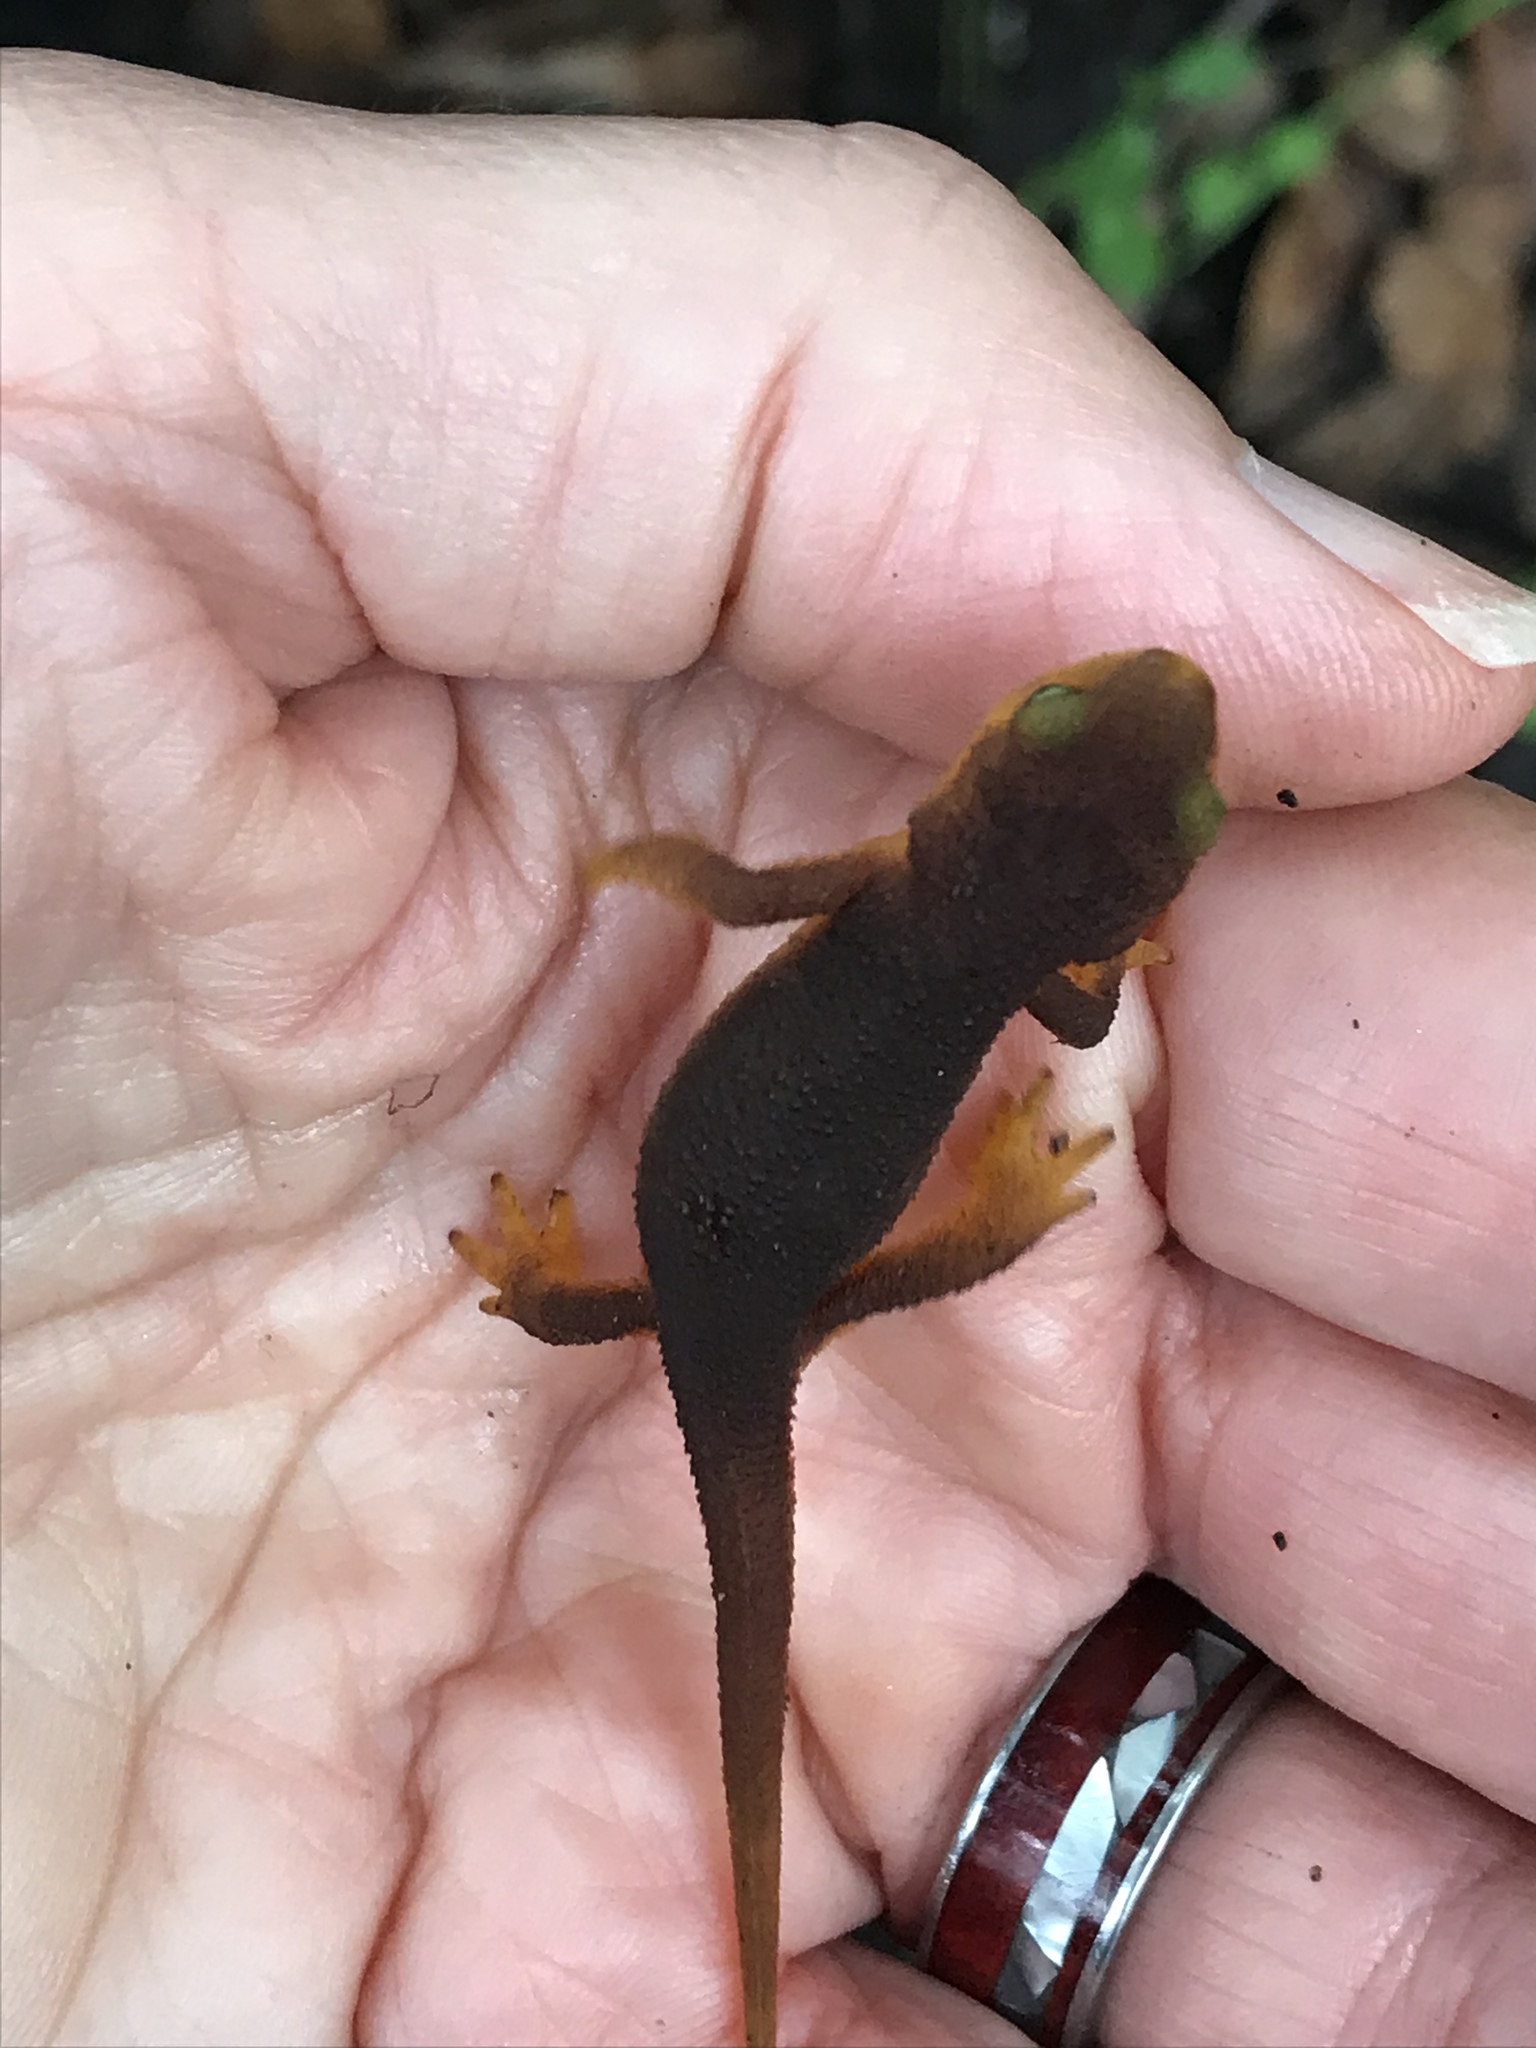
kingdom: Animalia
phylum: Chordata
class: Amphibia
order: Caudata
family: Salamandridae
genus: Taricha
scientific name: Taricha torosa
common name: California newt
